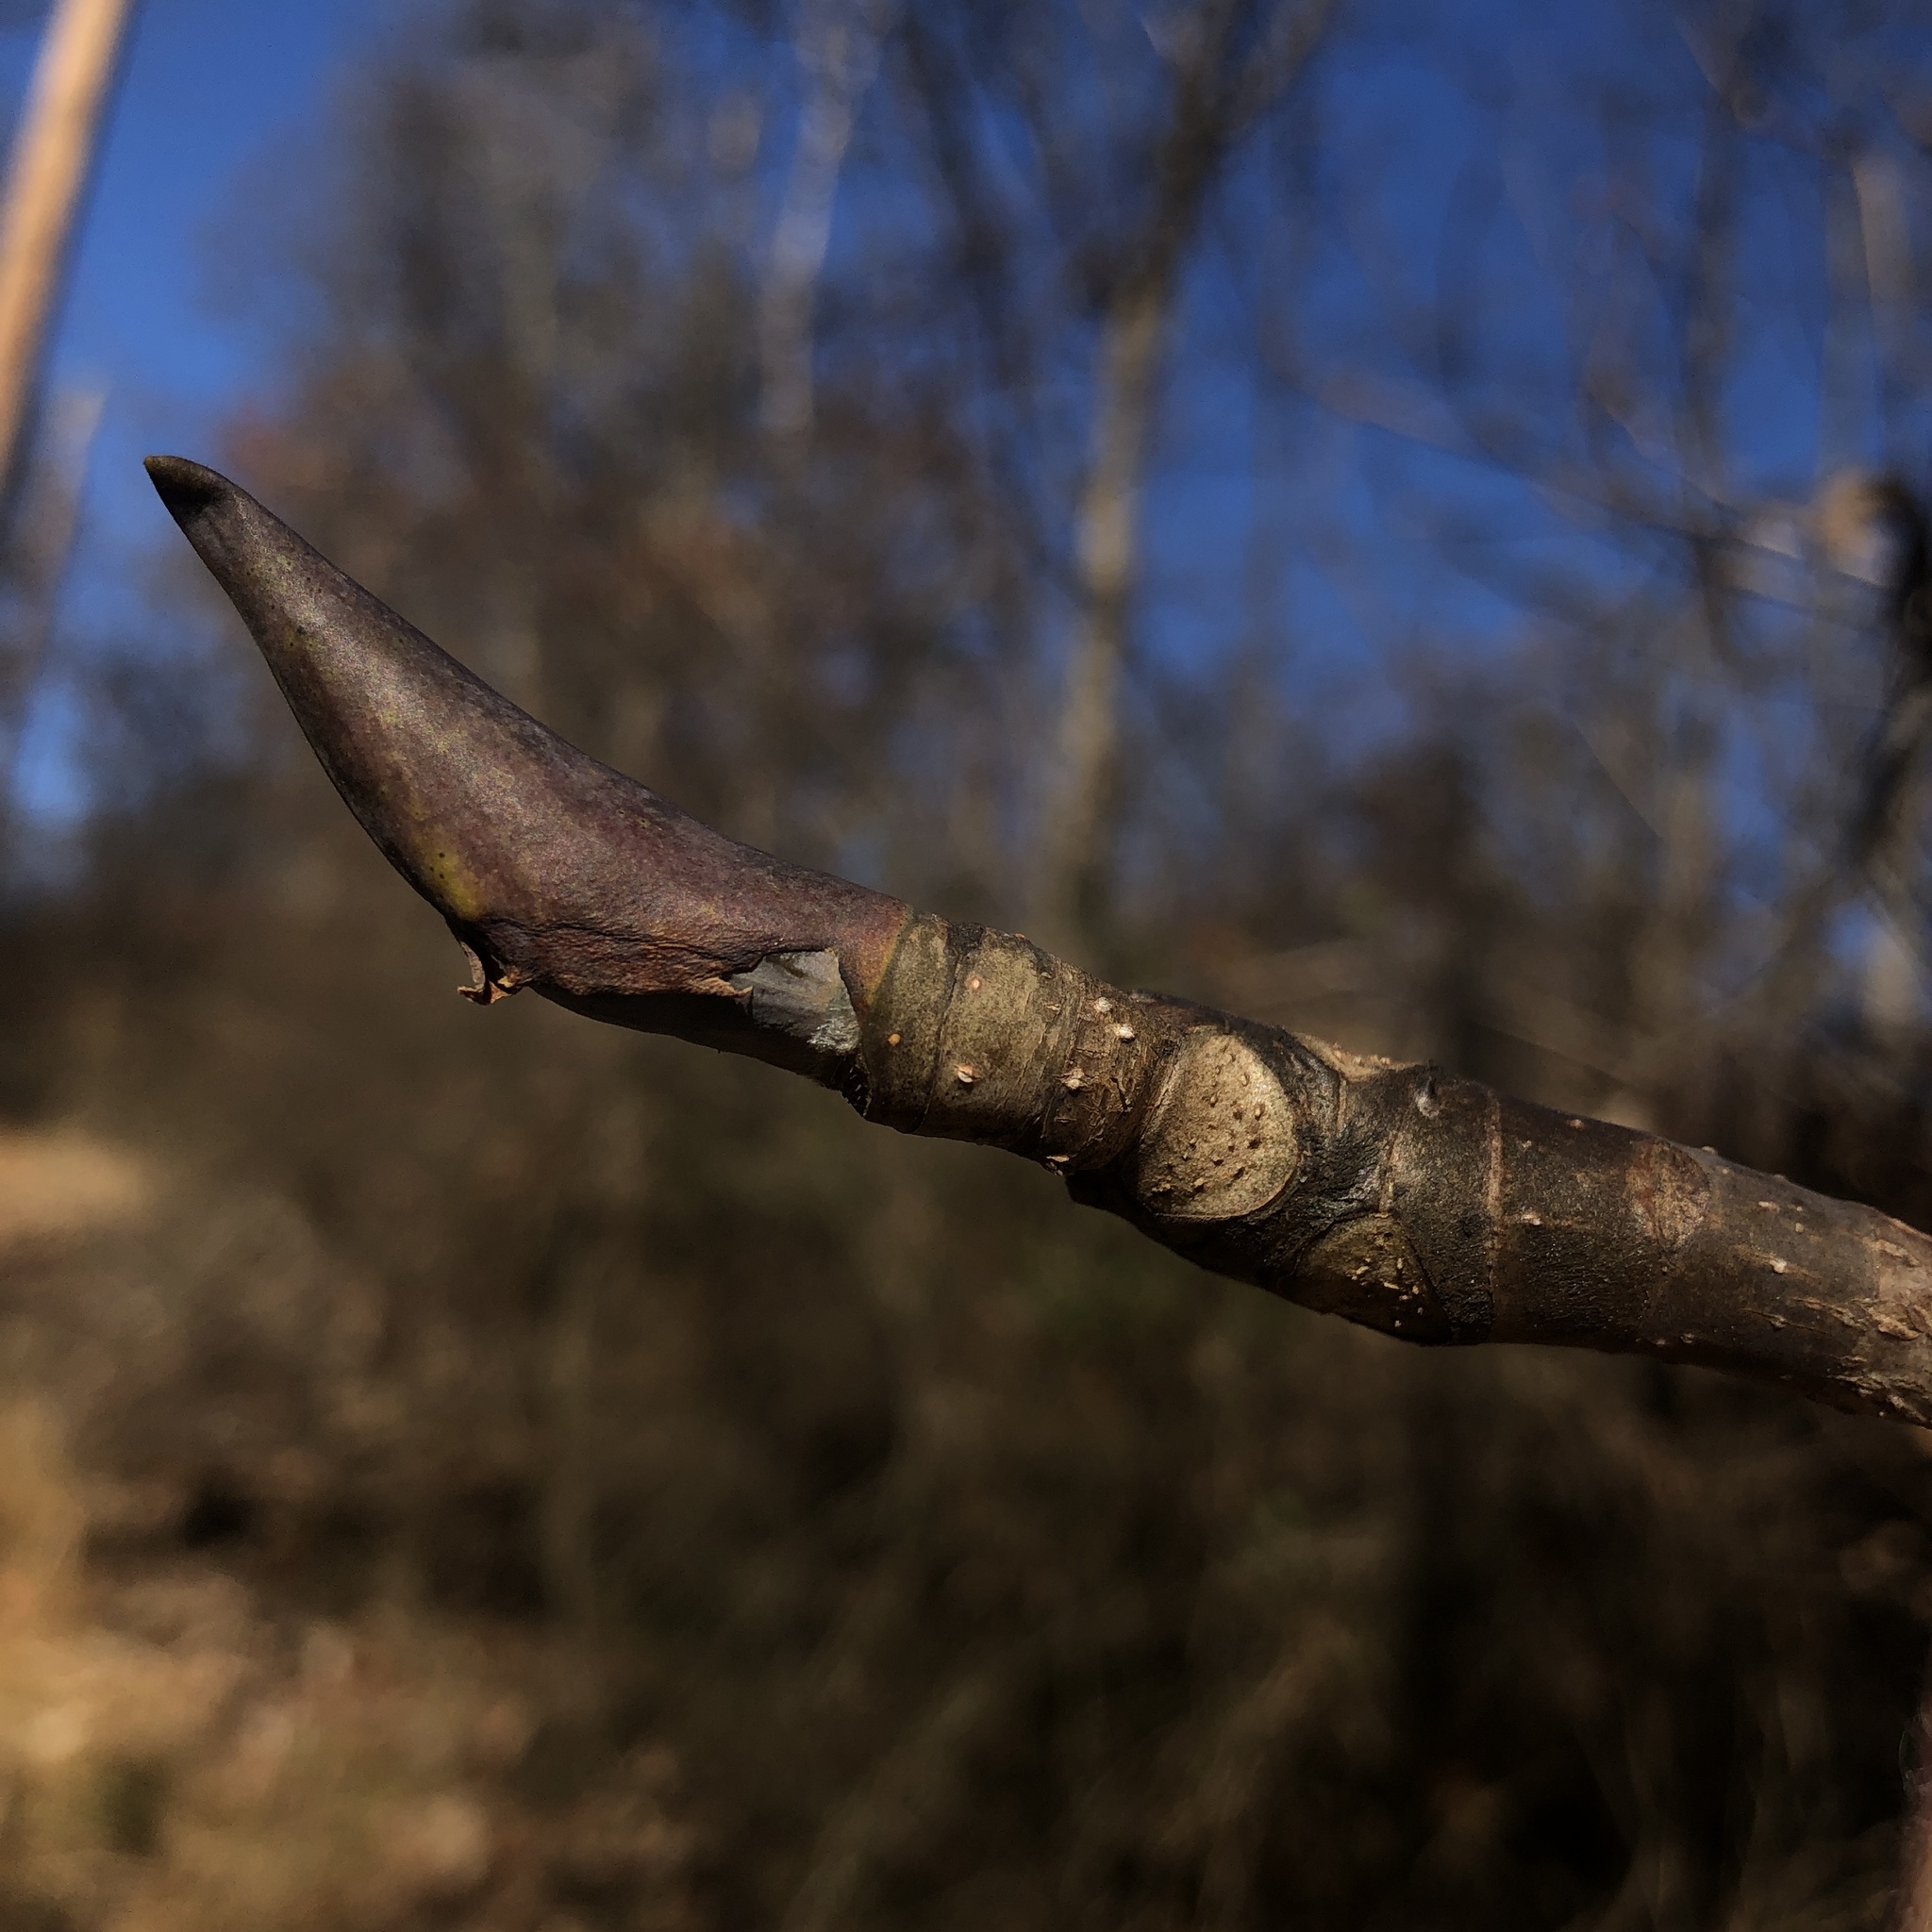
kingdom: Plantae
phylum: Tracheophyta
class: Magnoliopsida
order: Magnoliales
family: Magnoliaceae
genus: Magnolia
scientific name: Magnolia tripetala
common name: Umbrella magnolia
